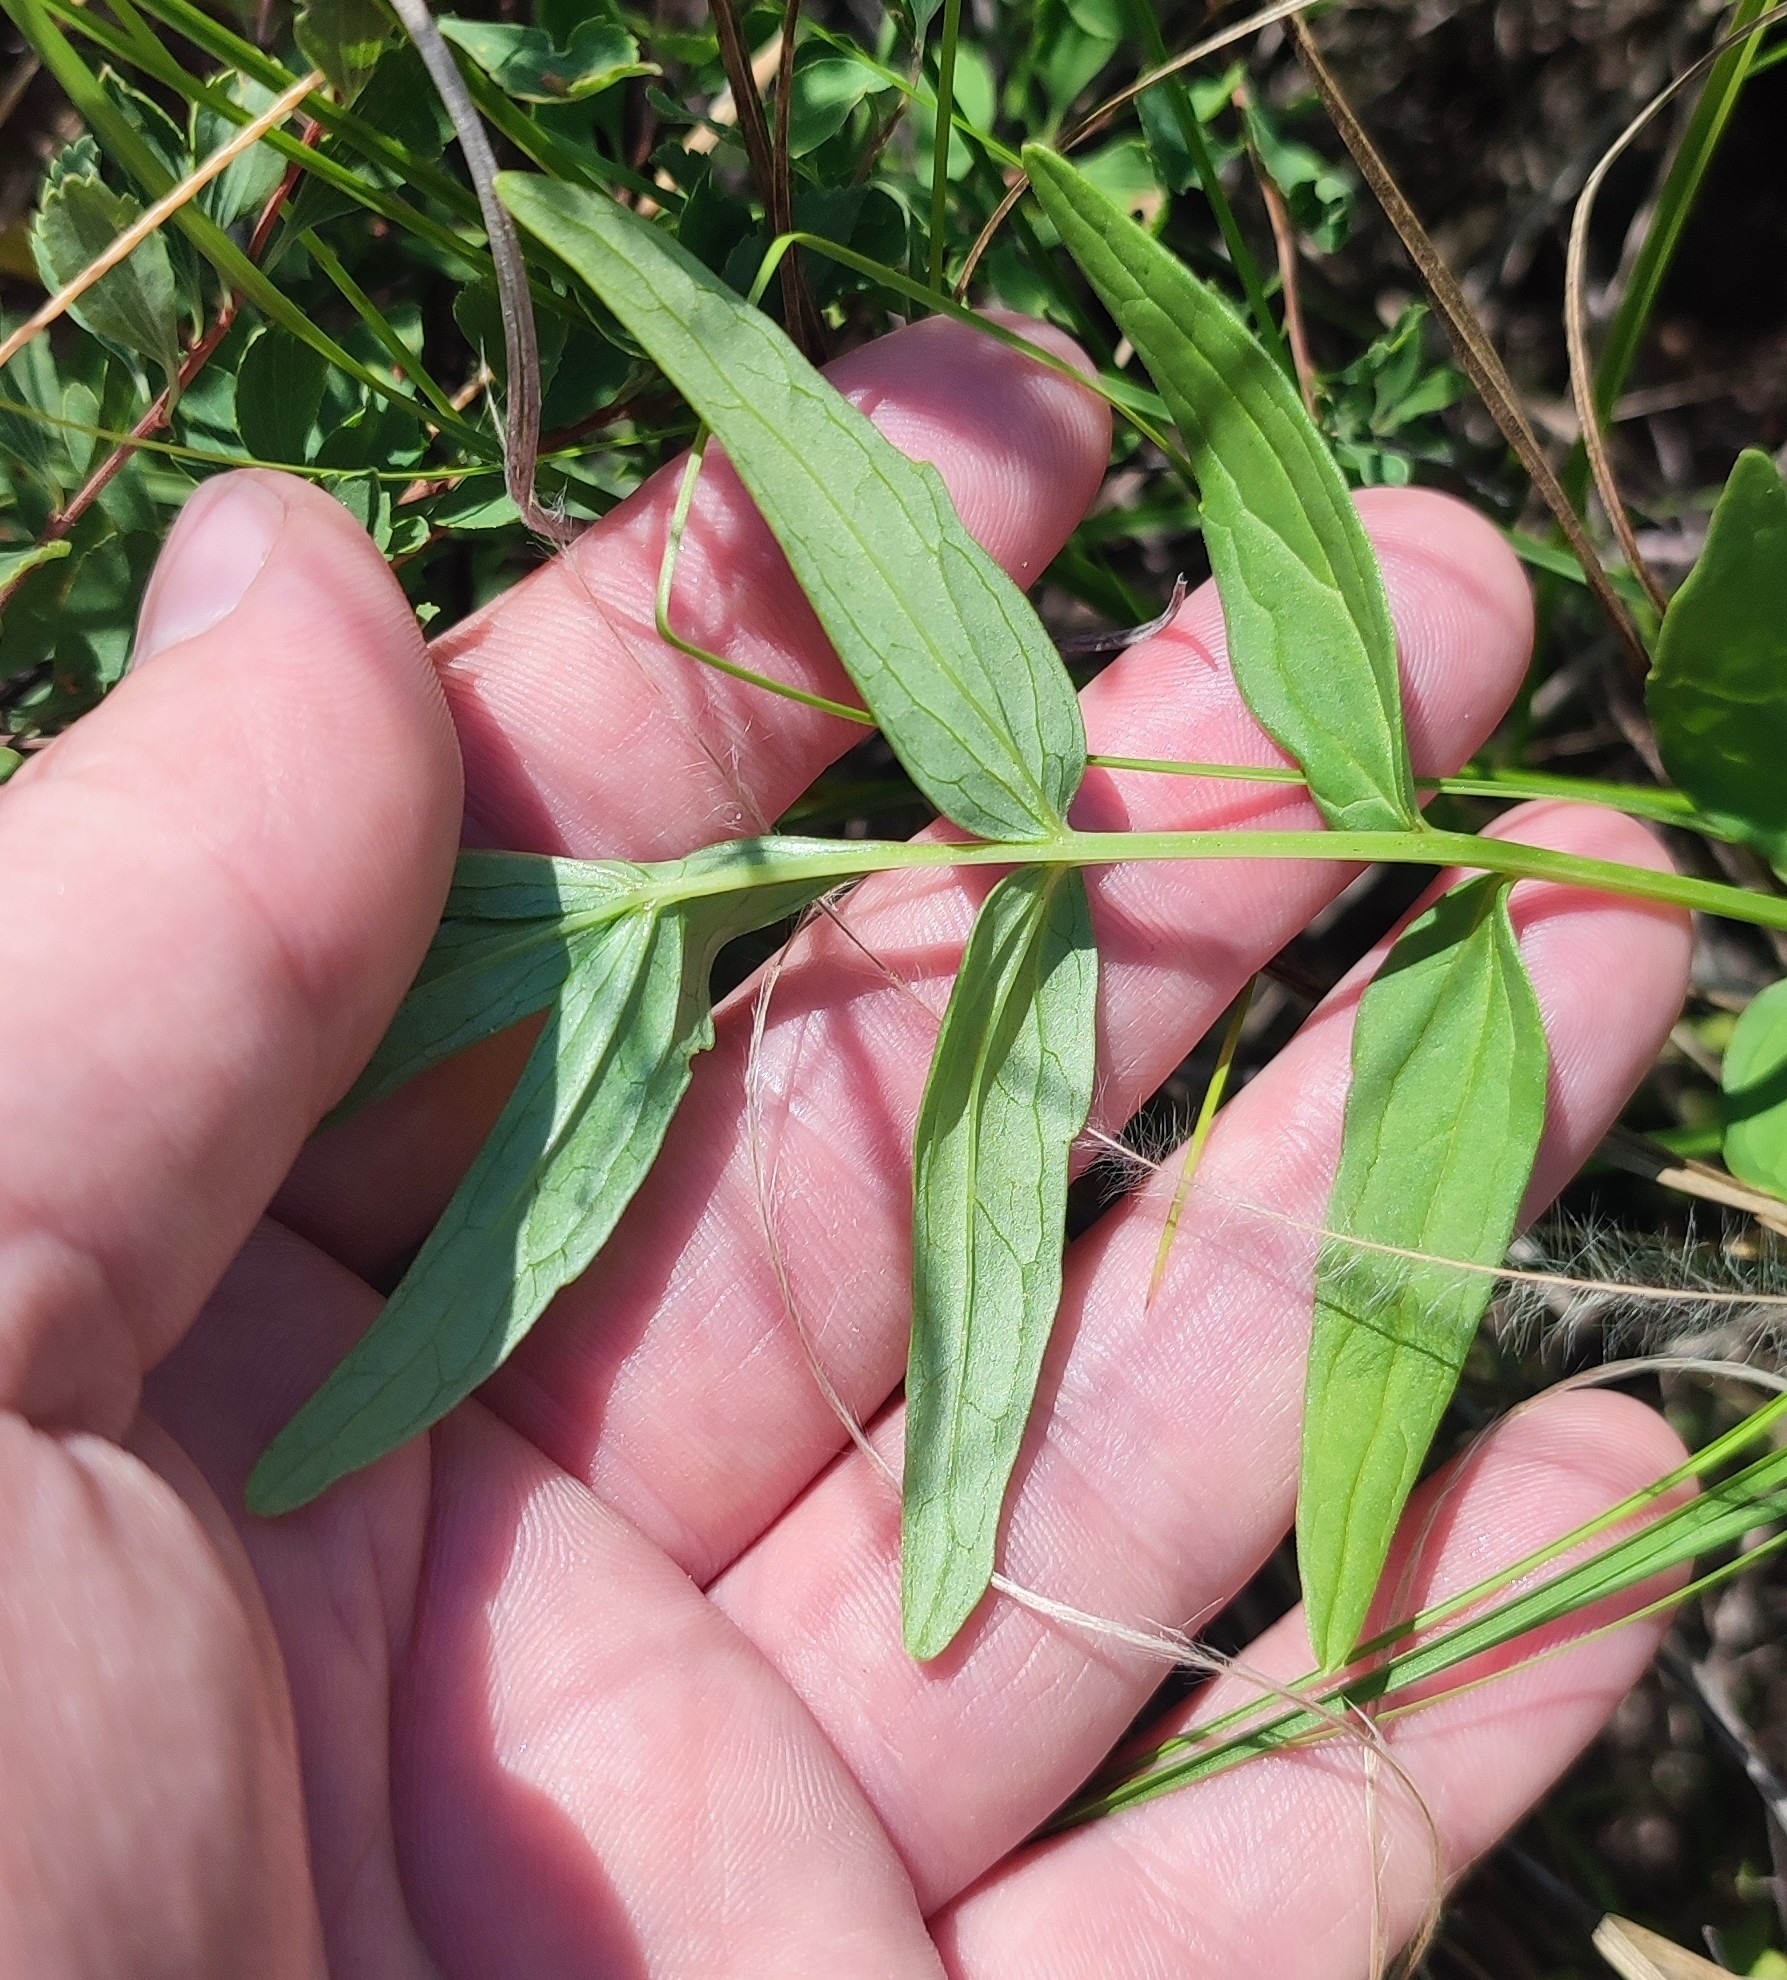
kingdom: Plantae
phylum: Tracheophyta
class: Magnoliopsida
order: Dipsacales
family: Caprifoliaceae
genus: Valeriana
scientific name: Valeriana wolgensis
